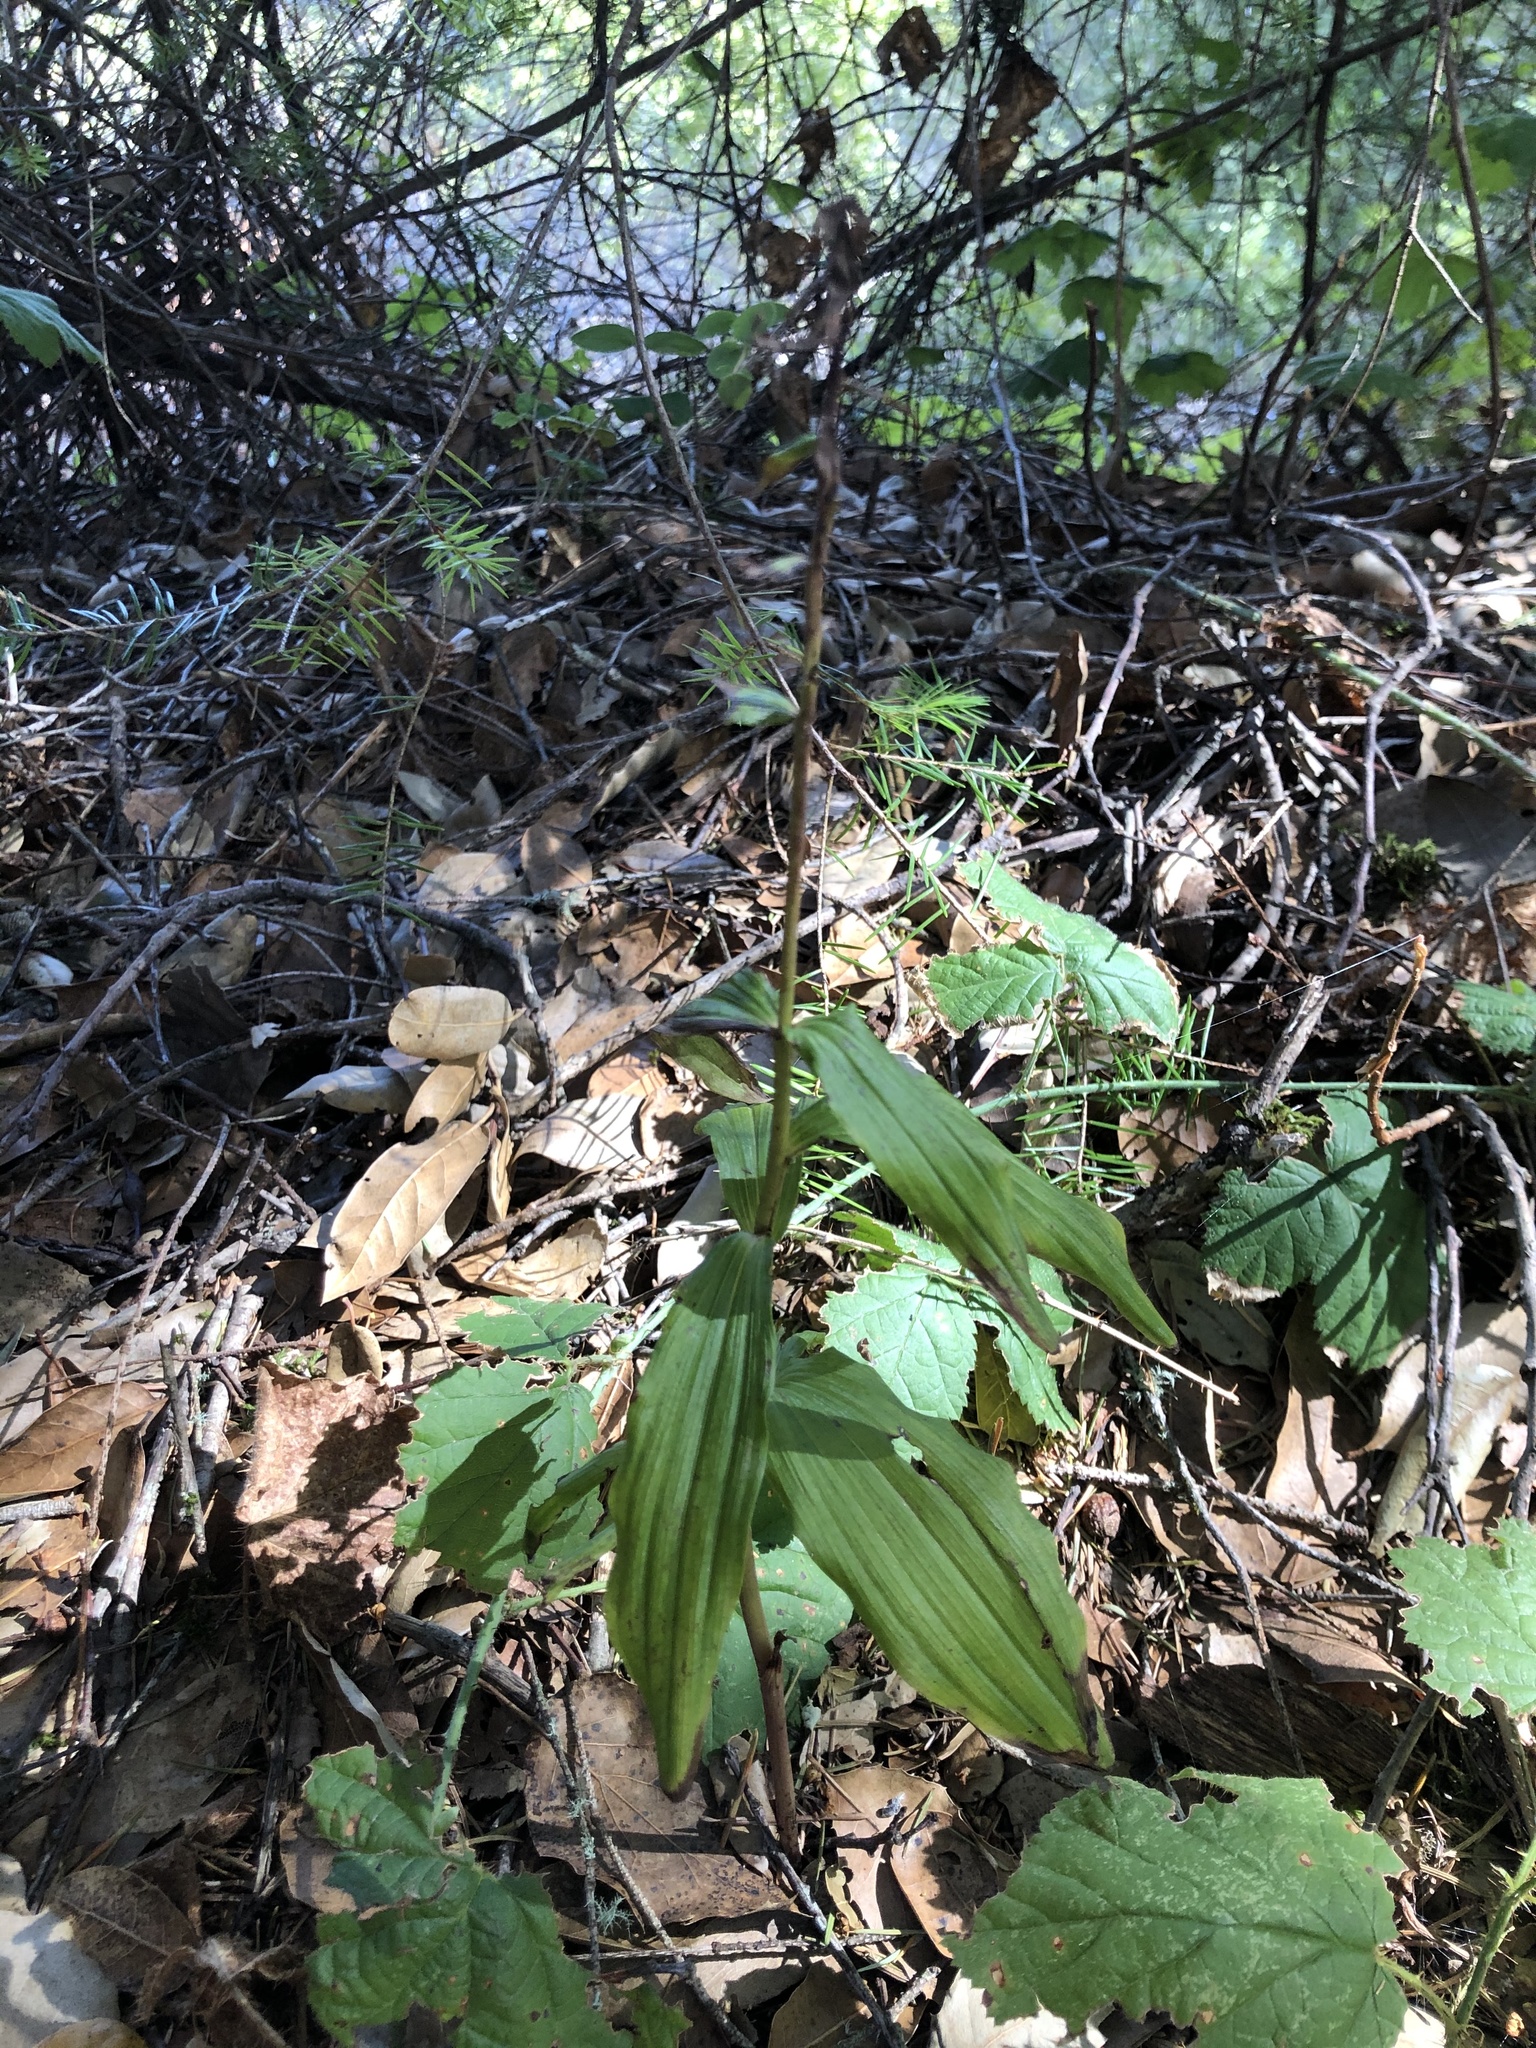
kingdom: Plantae
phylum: Tracheophyta
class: Liliopsida
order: Asparagales
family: Orchidaceae
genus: Epipactis
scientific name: Epipactis helleborine
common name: Broad-leaved helleborine
